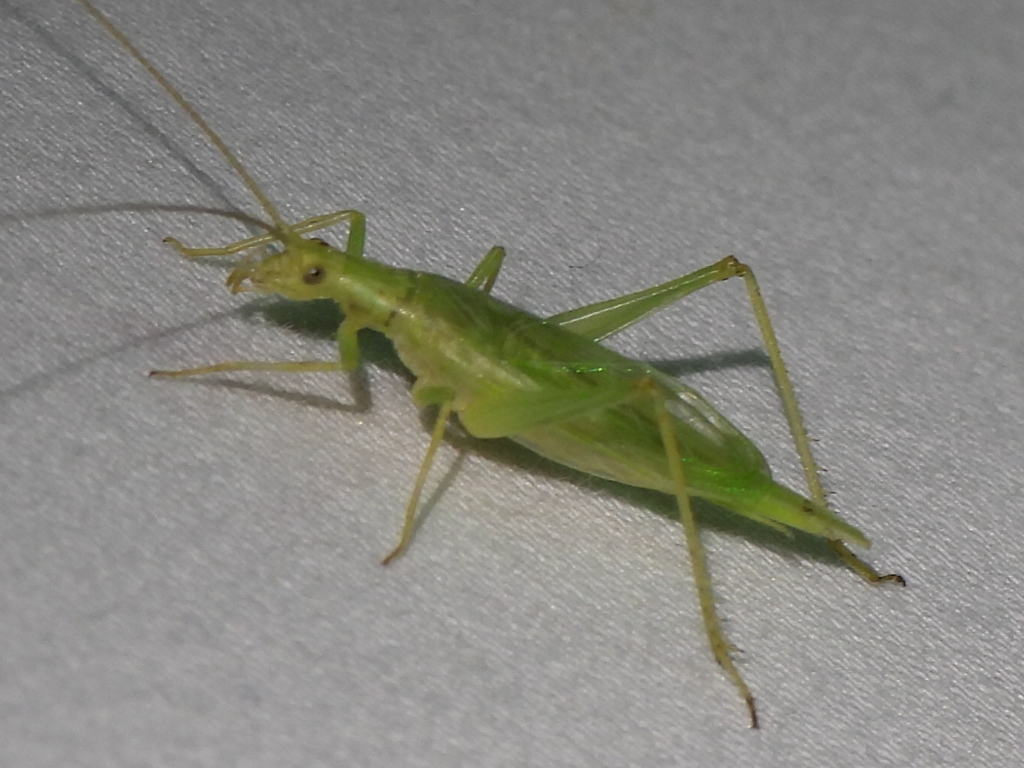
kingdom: Animalia
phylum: Arthropoda
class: Insecta
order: Orthoptera
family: Gryllidae
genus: Oecanthus
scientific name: Oecanthus celerinictus
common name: Fast-calling tree cricket
